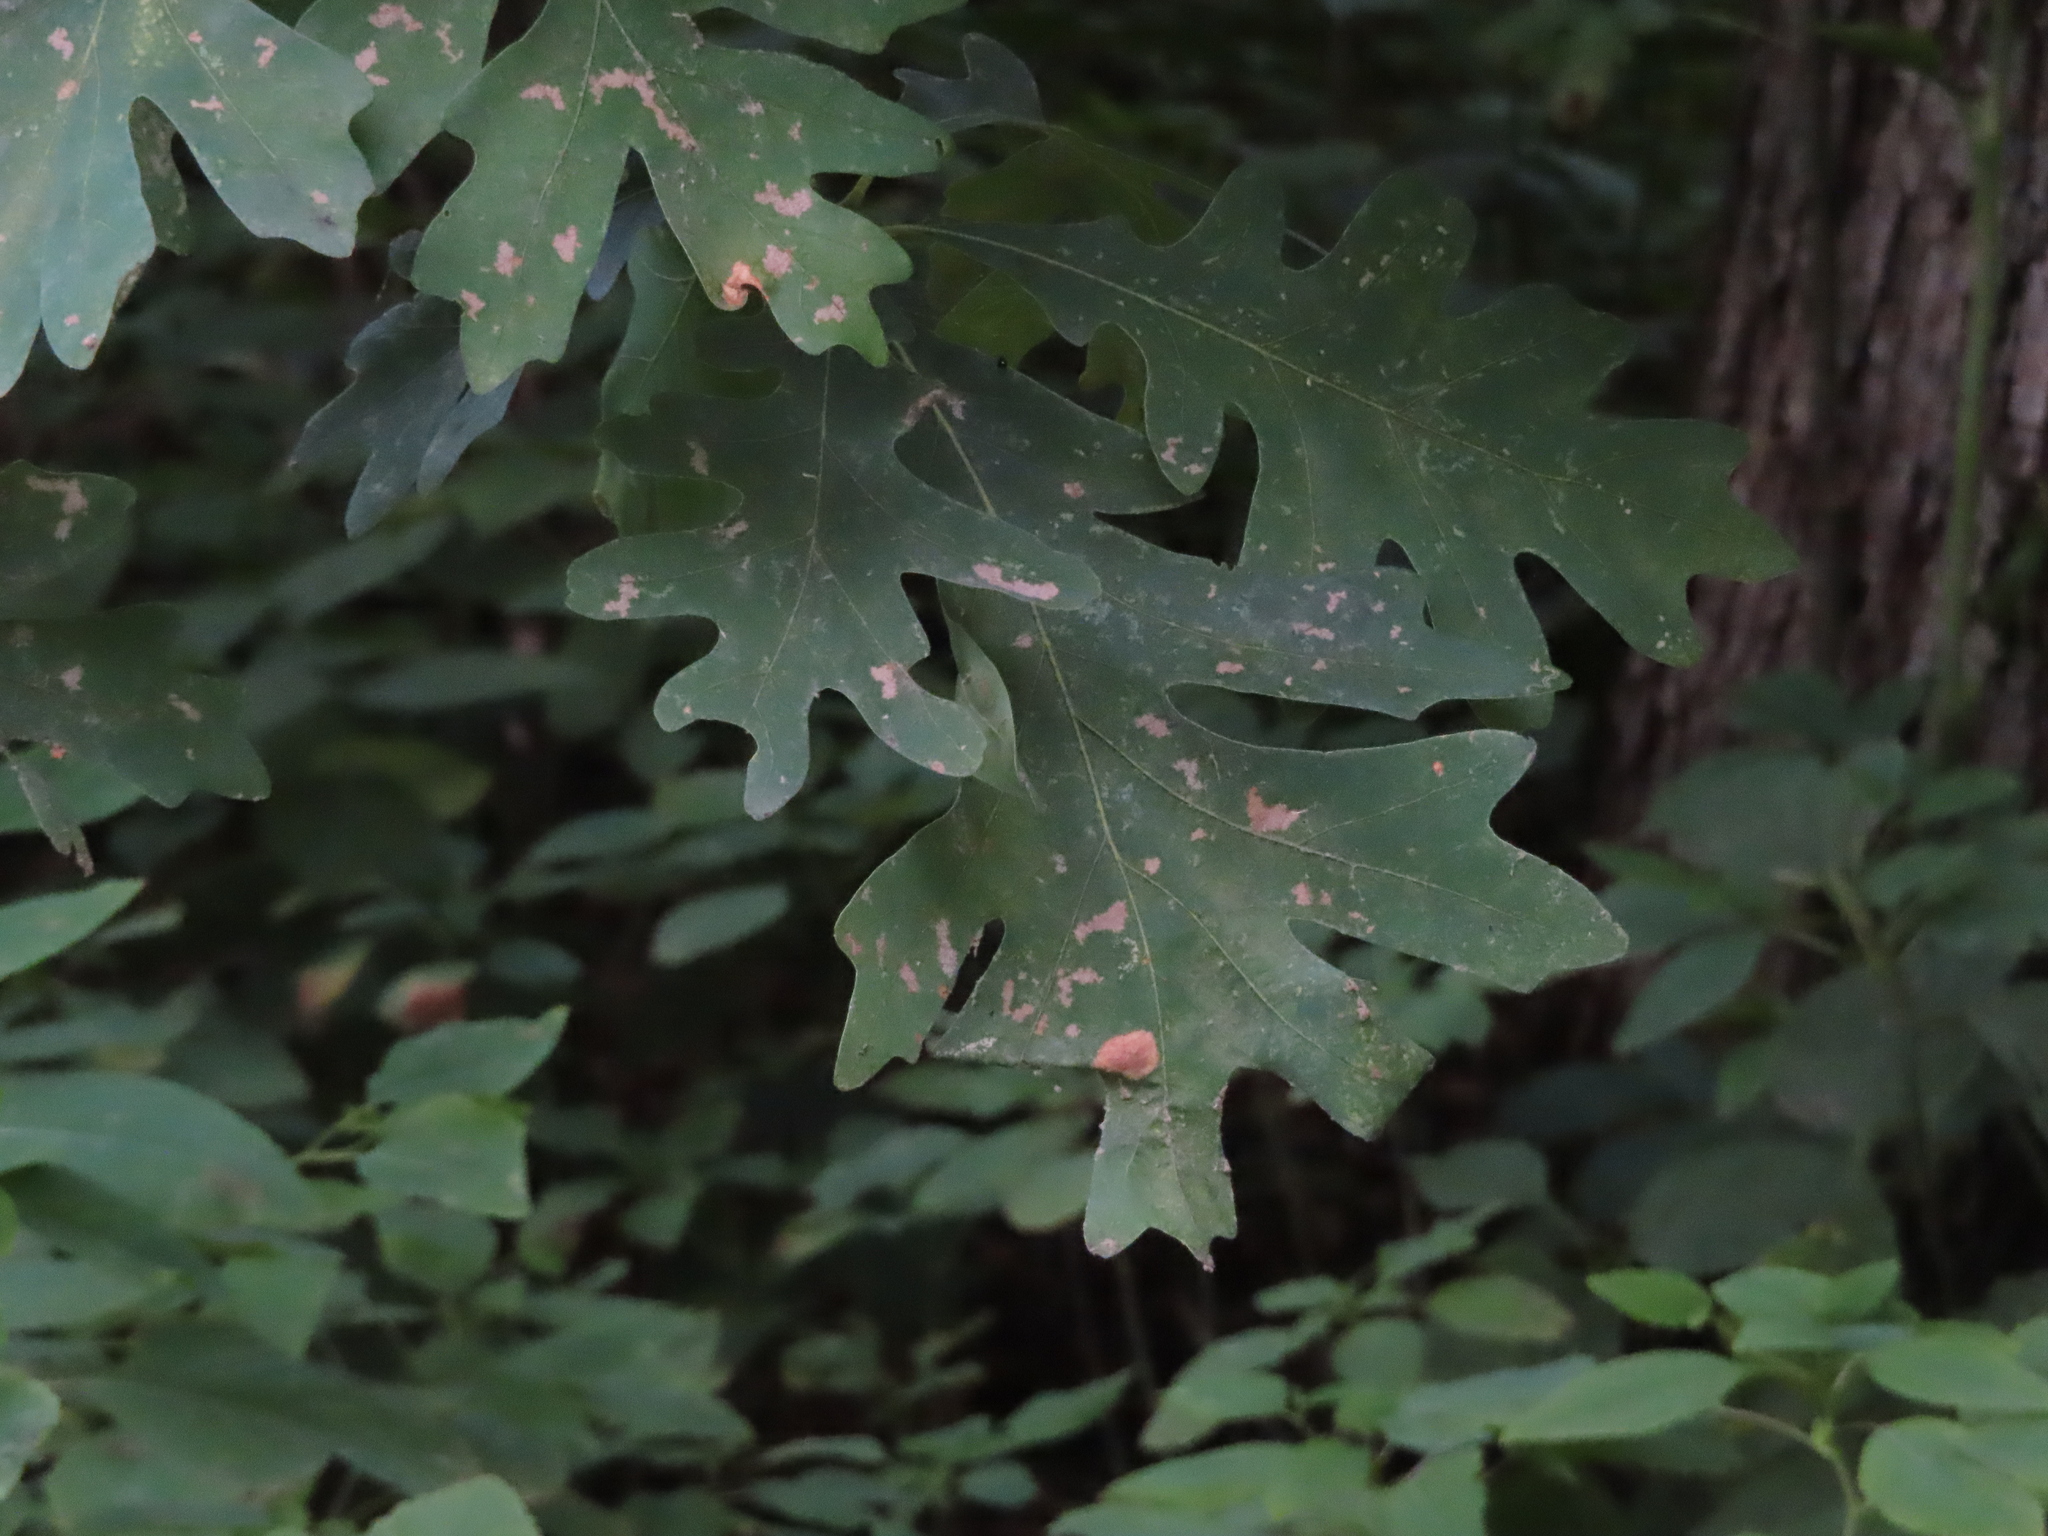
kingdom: Plantae
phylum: Tracheophyta
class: Magnoliopsida
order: Fagales
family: Fagaceae
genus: Quercus
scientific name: Quercus alba
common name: White oak
